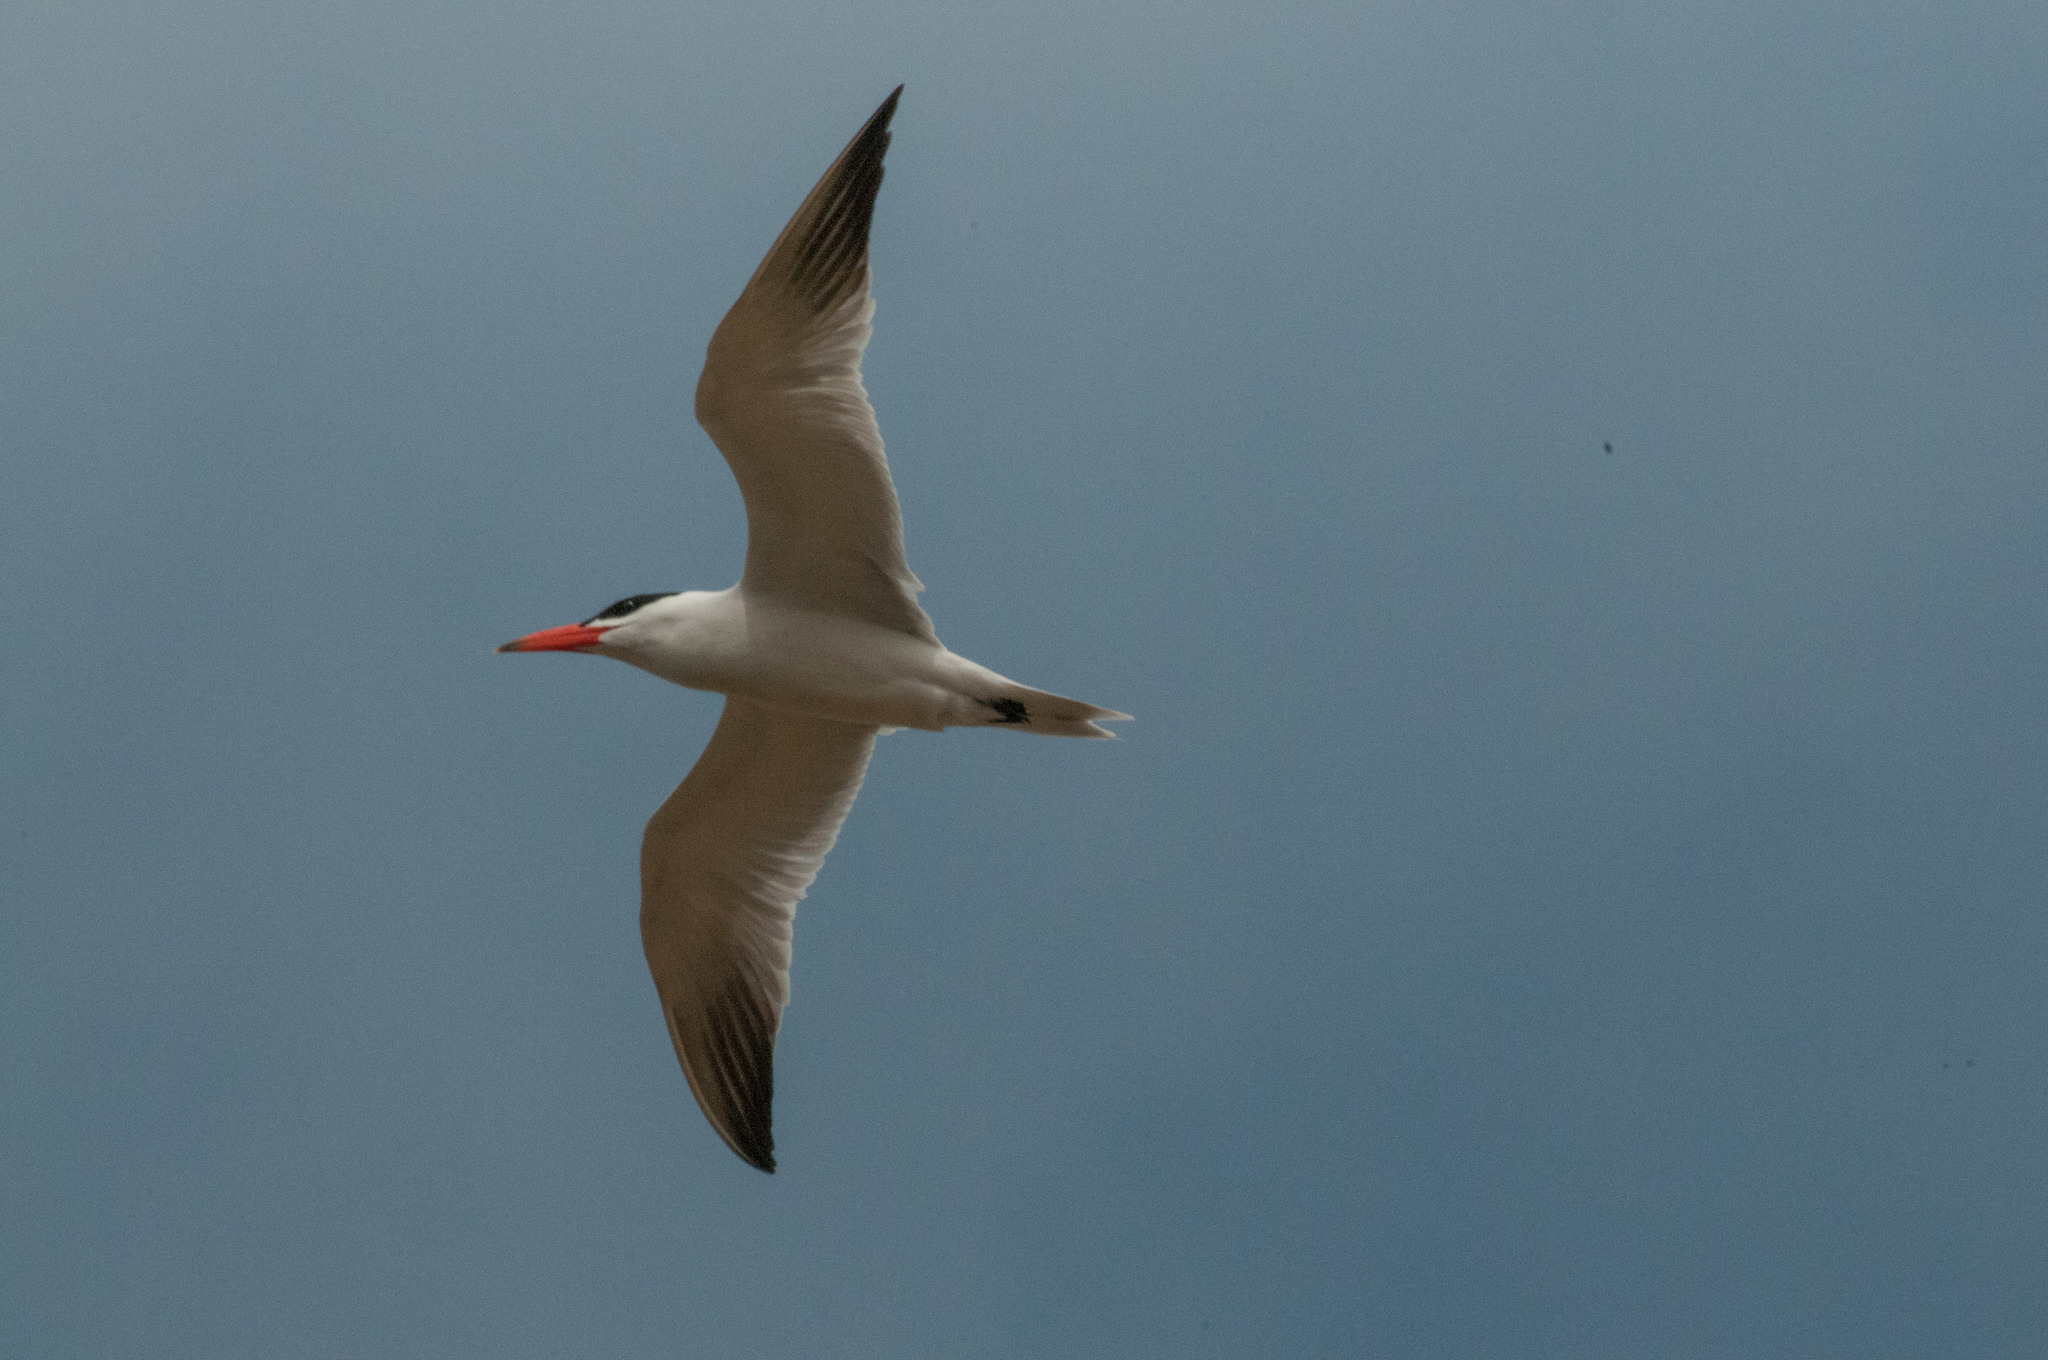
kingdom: Animalia
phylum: Chordata
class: Aves
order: Charadriiformes
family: Laridae
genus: Hydroprogne
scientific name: Hydroprogne caspia
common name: Caspian tern
